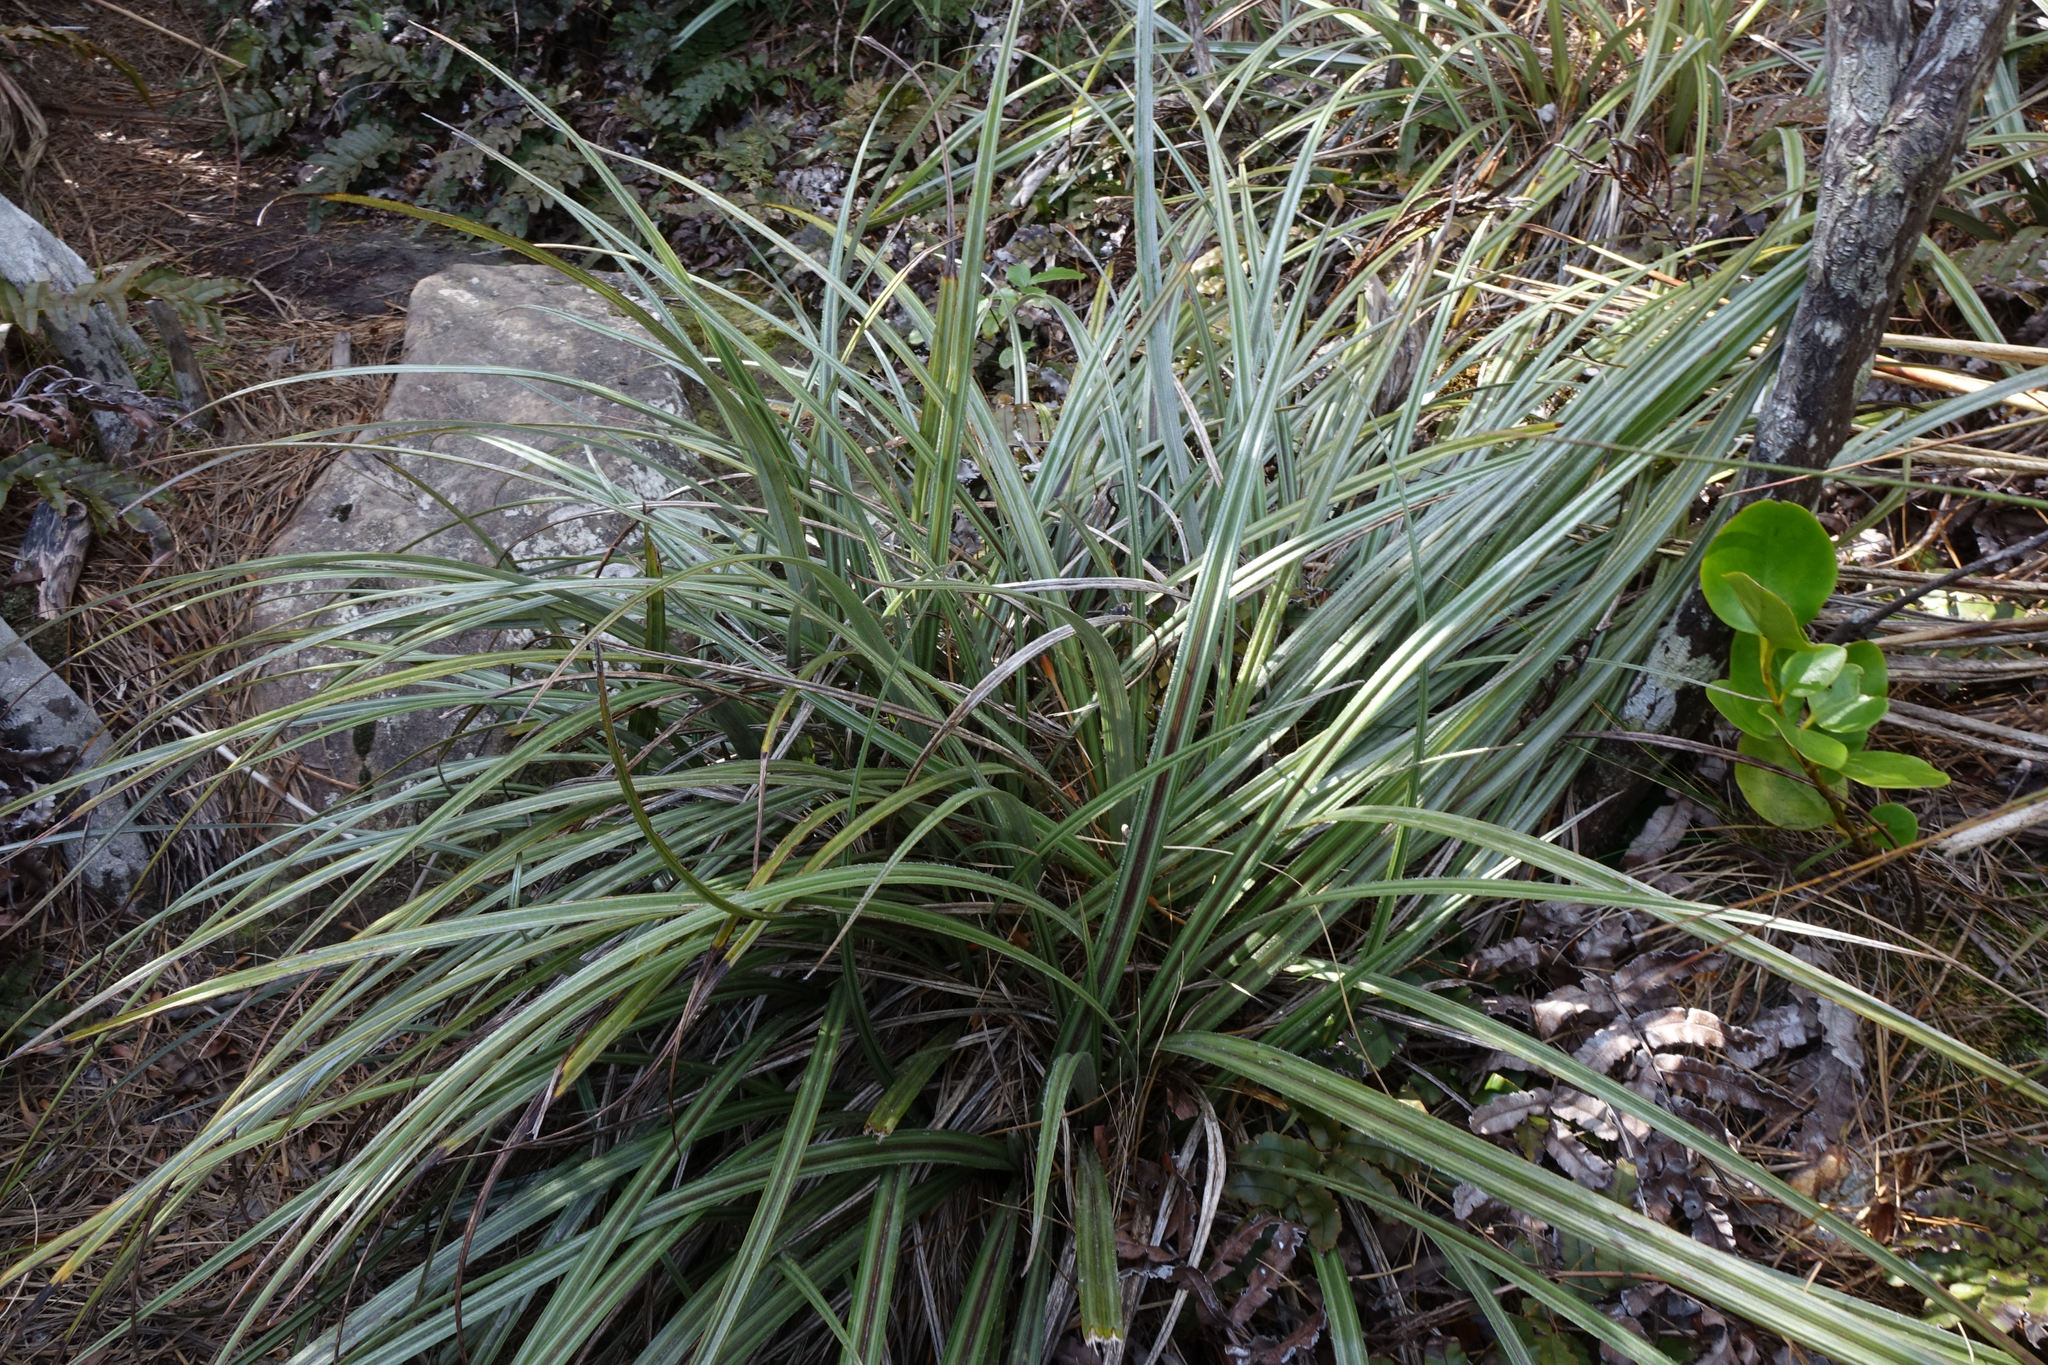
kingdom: Plantae
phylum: Tracheophyta
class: Liliopsida
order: Asparagales
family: Asteliaceae
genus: Astelia
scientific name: Astelia nervosa
